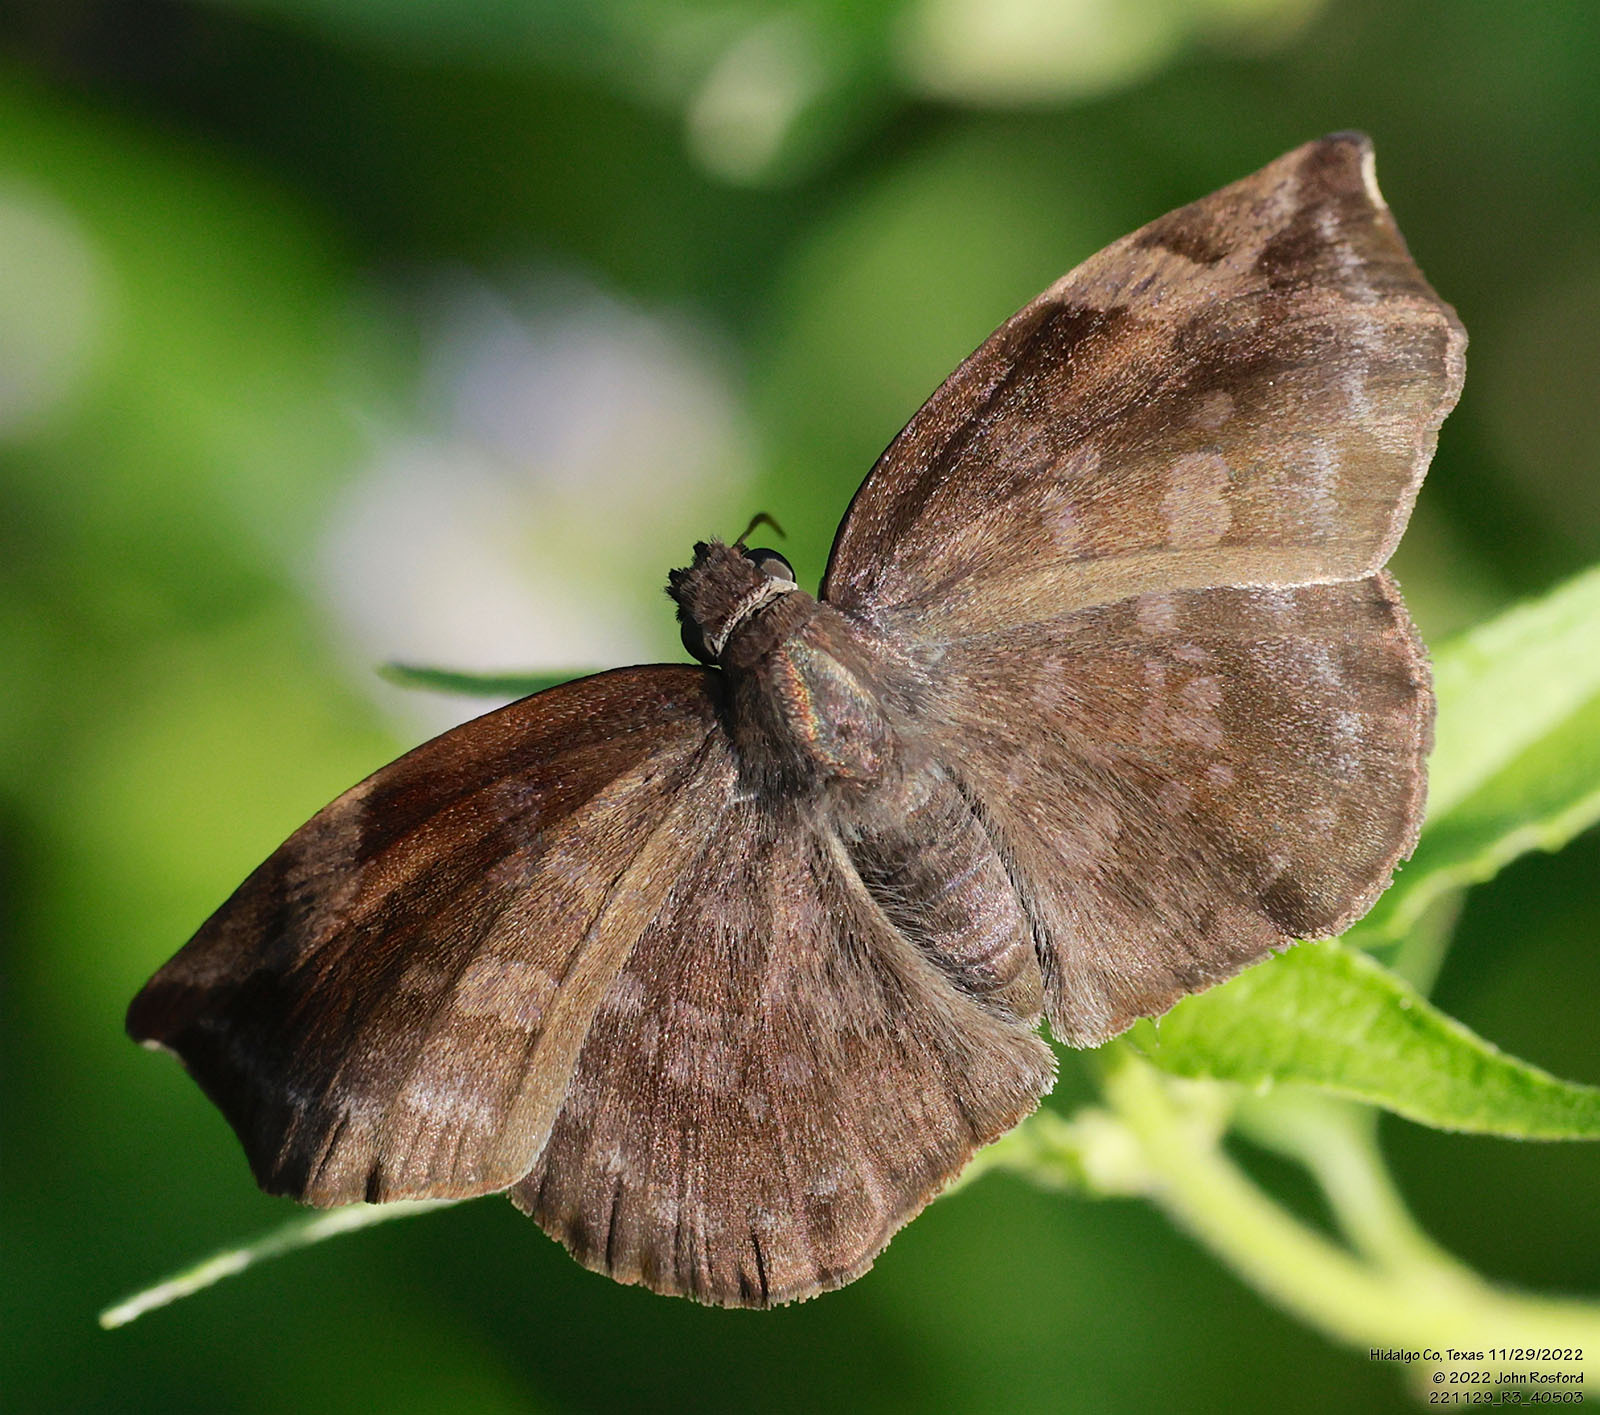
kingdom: Animalia
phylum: Arthropoda
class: Insecta
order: Lepidoptera
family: Hesperiidae
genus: Achlyodes
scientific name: Achlyodes thraso
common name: Sickle-winged skipper
